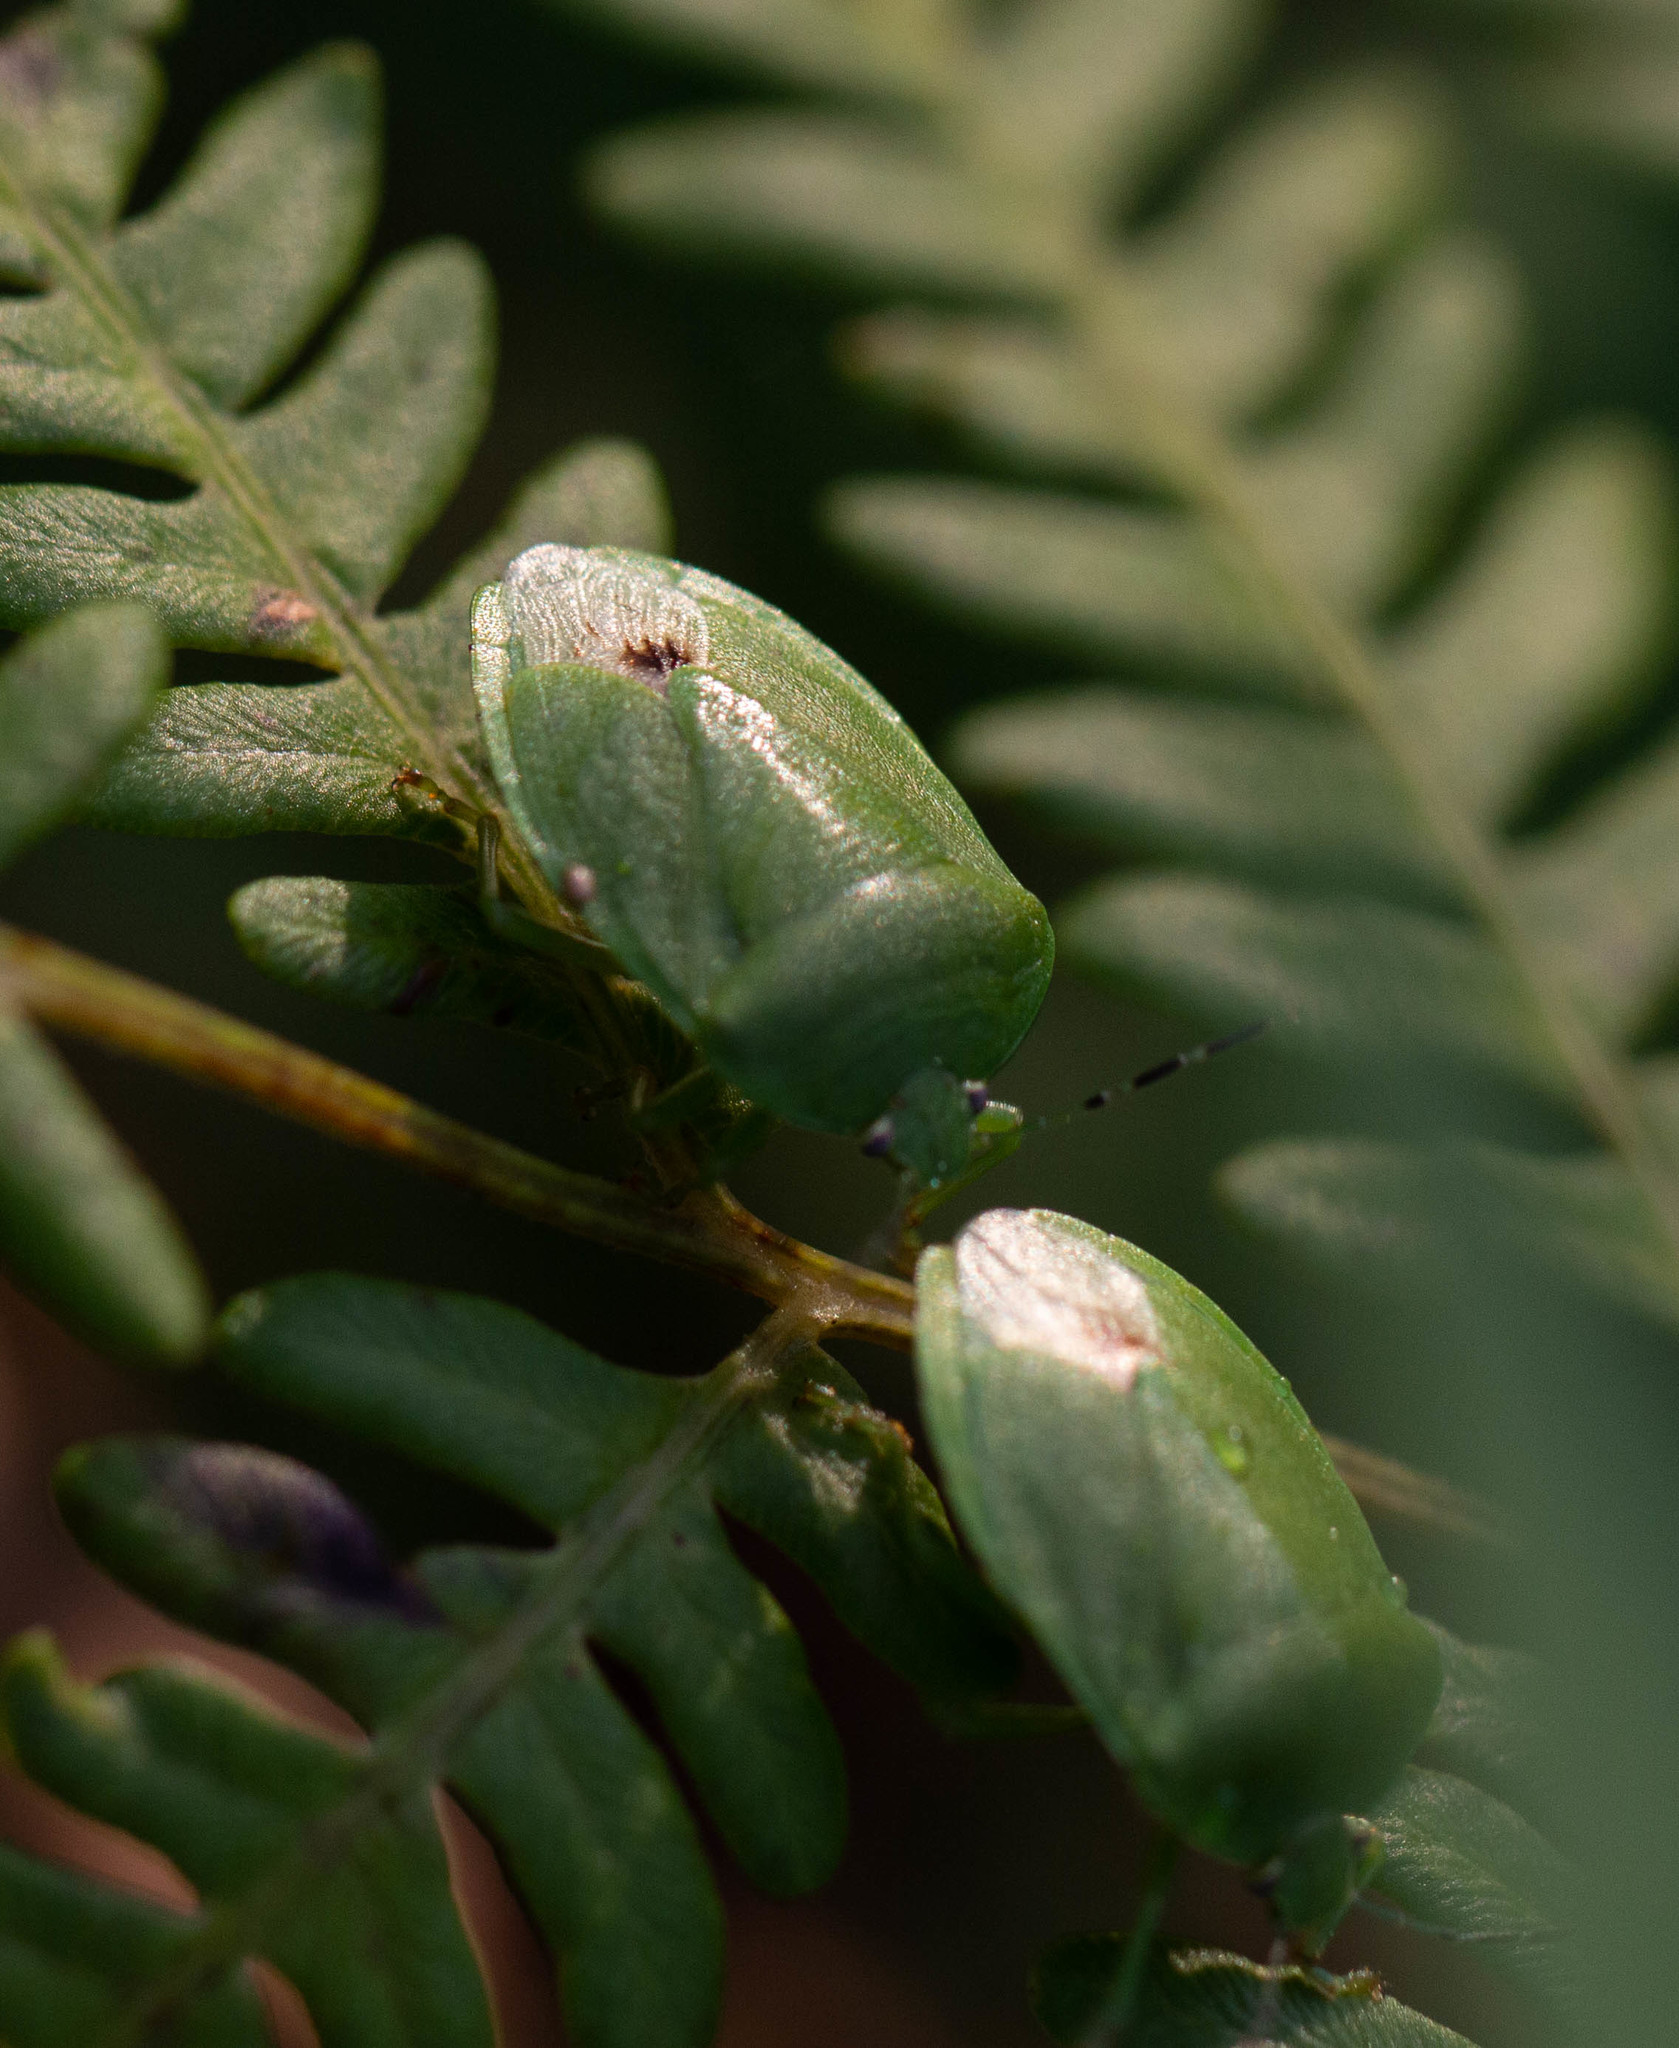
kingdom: Animalia
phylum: Arthropoda
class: Insecta
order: Hemiptera
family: Pentatomidae
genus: Chinavia
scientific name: Chinavia
